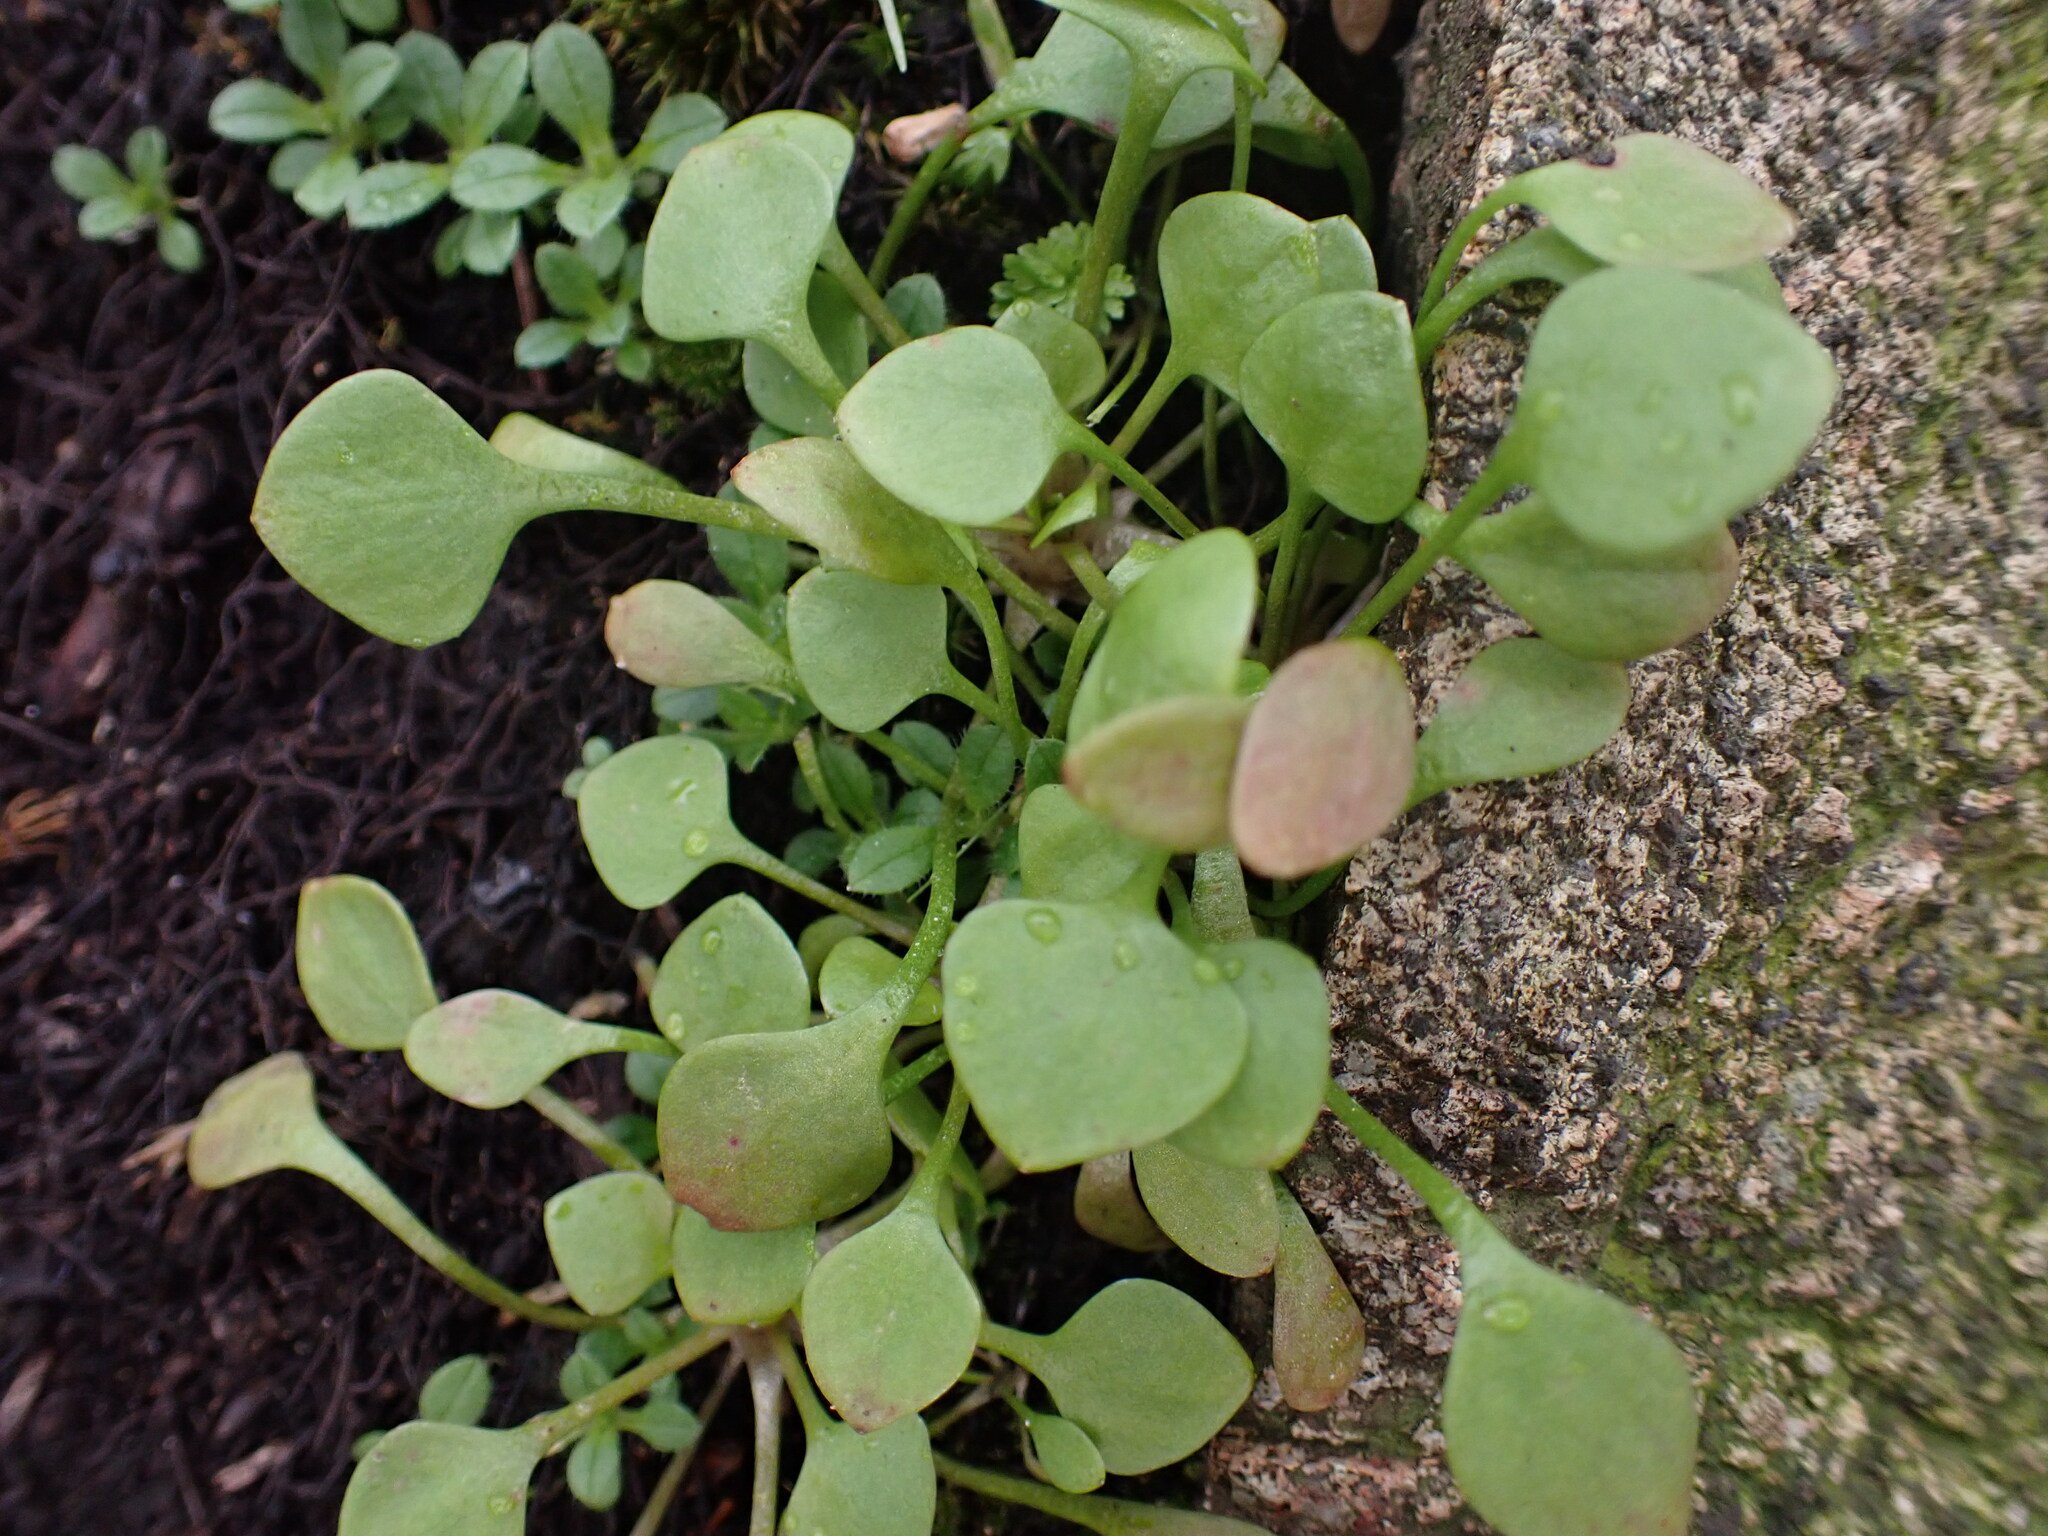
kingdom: Plantae
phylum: Tracheophyta
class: Magnoliopsida
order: Caryophyllales
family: Montiaceae
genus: Claytonia
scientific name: Claytonia perfoliata
